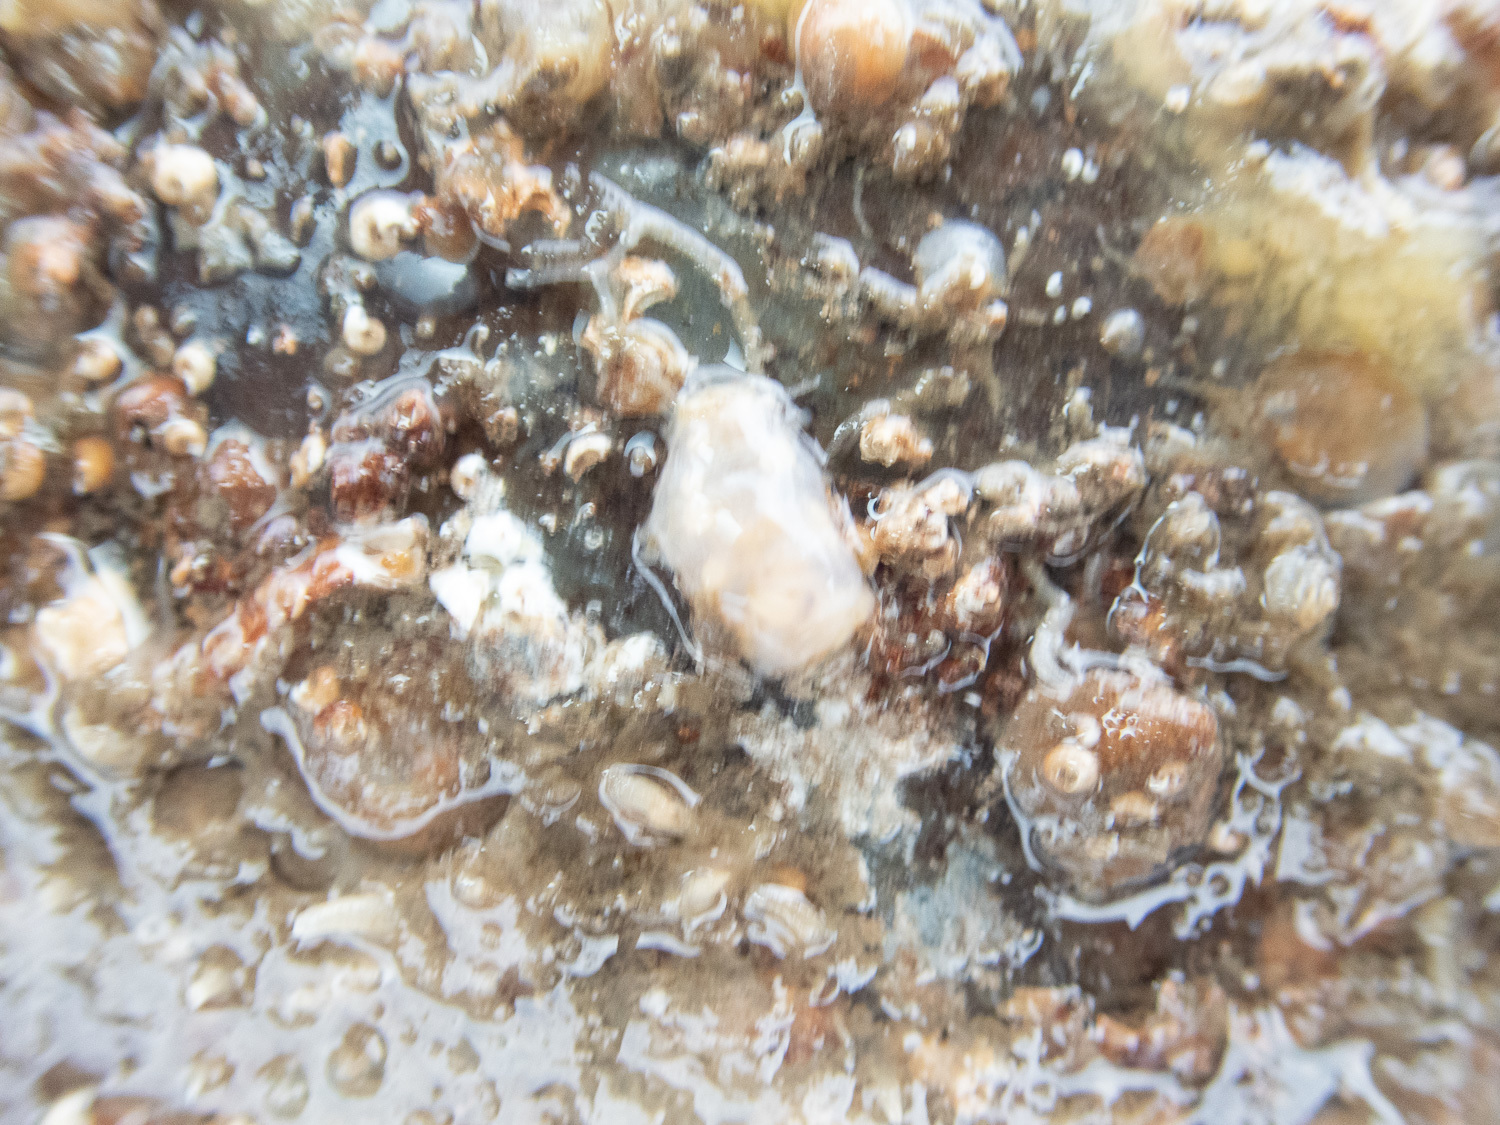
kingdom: Animalia
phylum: Echinodermata
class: Holothuroidea
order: Dendrochirotida
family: Cucumariidae
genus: Pawsonia
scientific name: Pawsonia saxicola
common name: Sea gherkin
